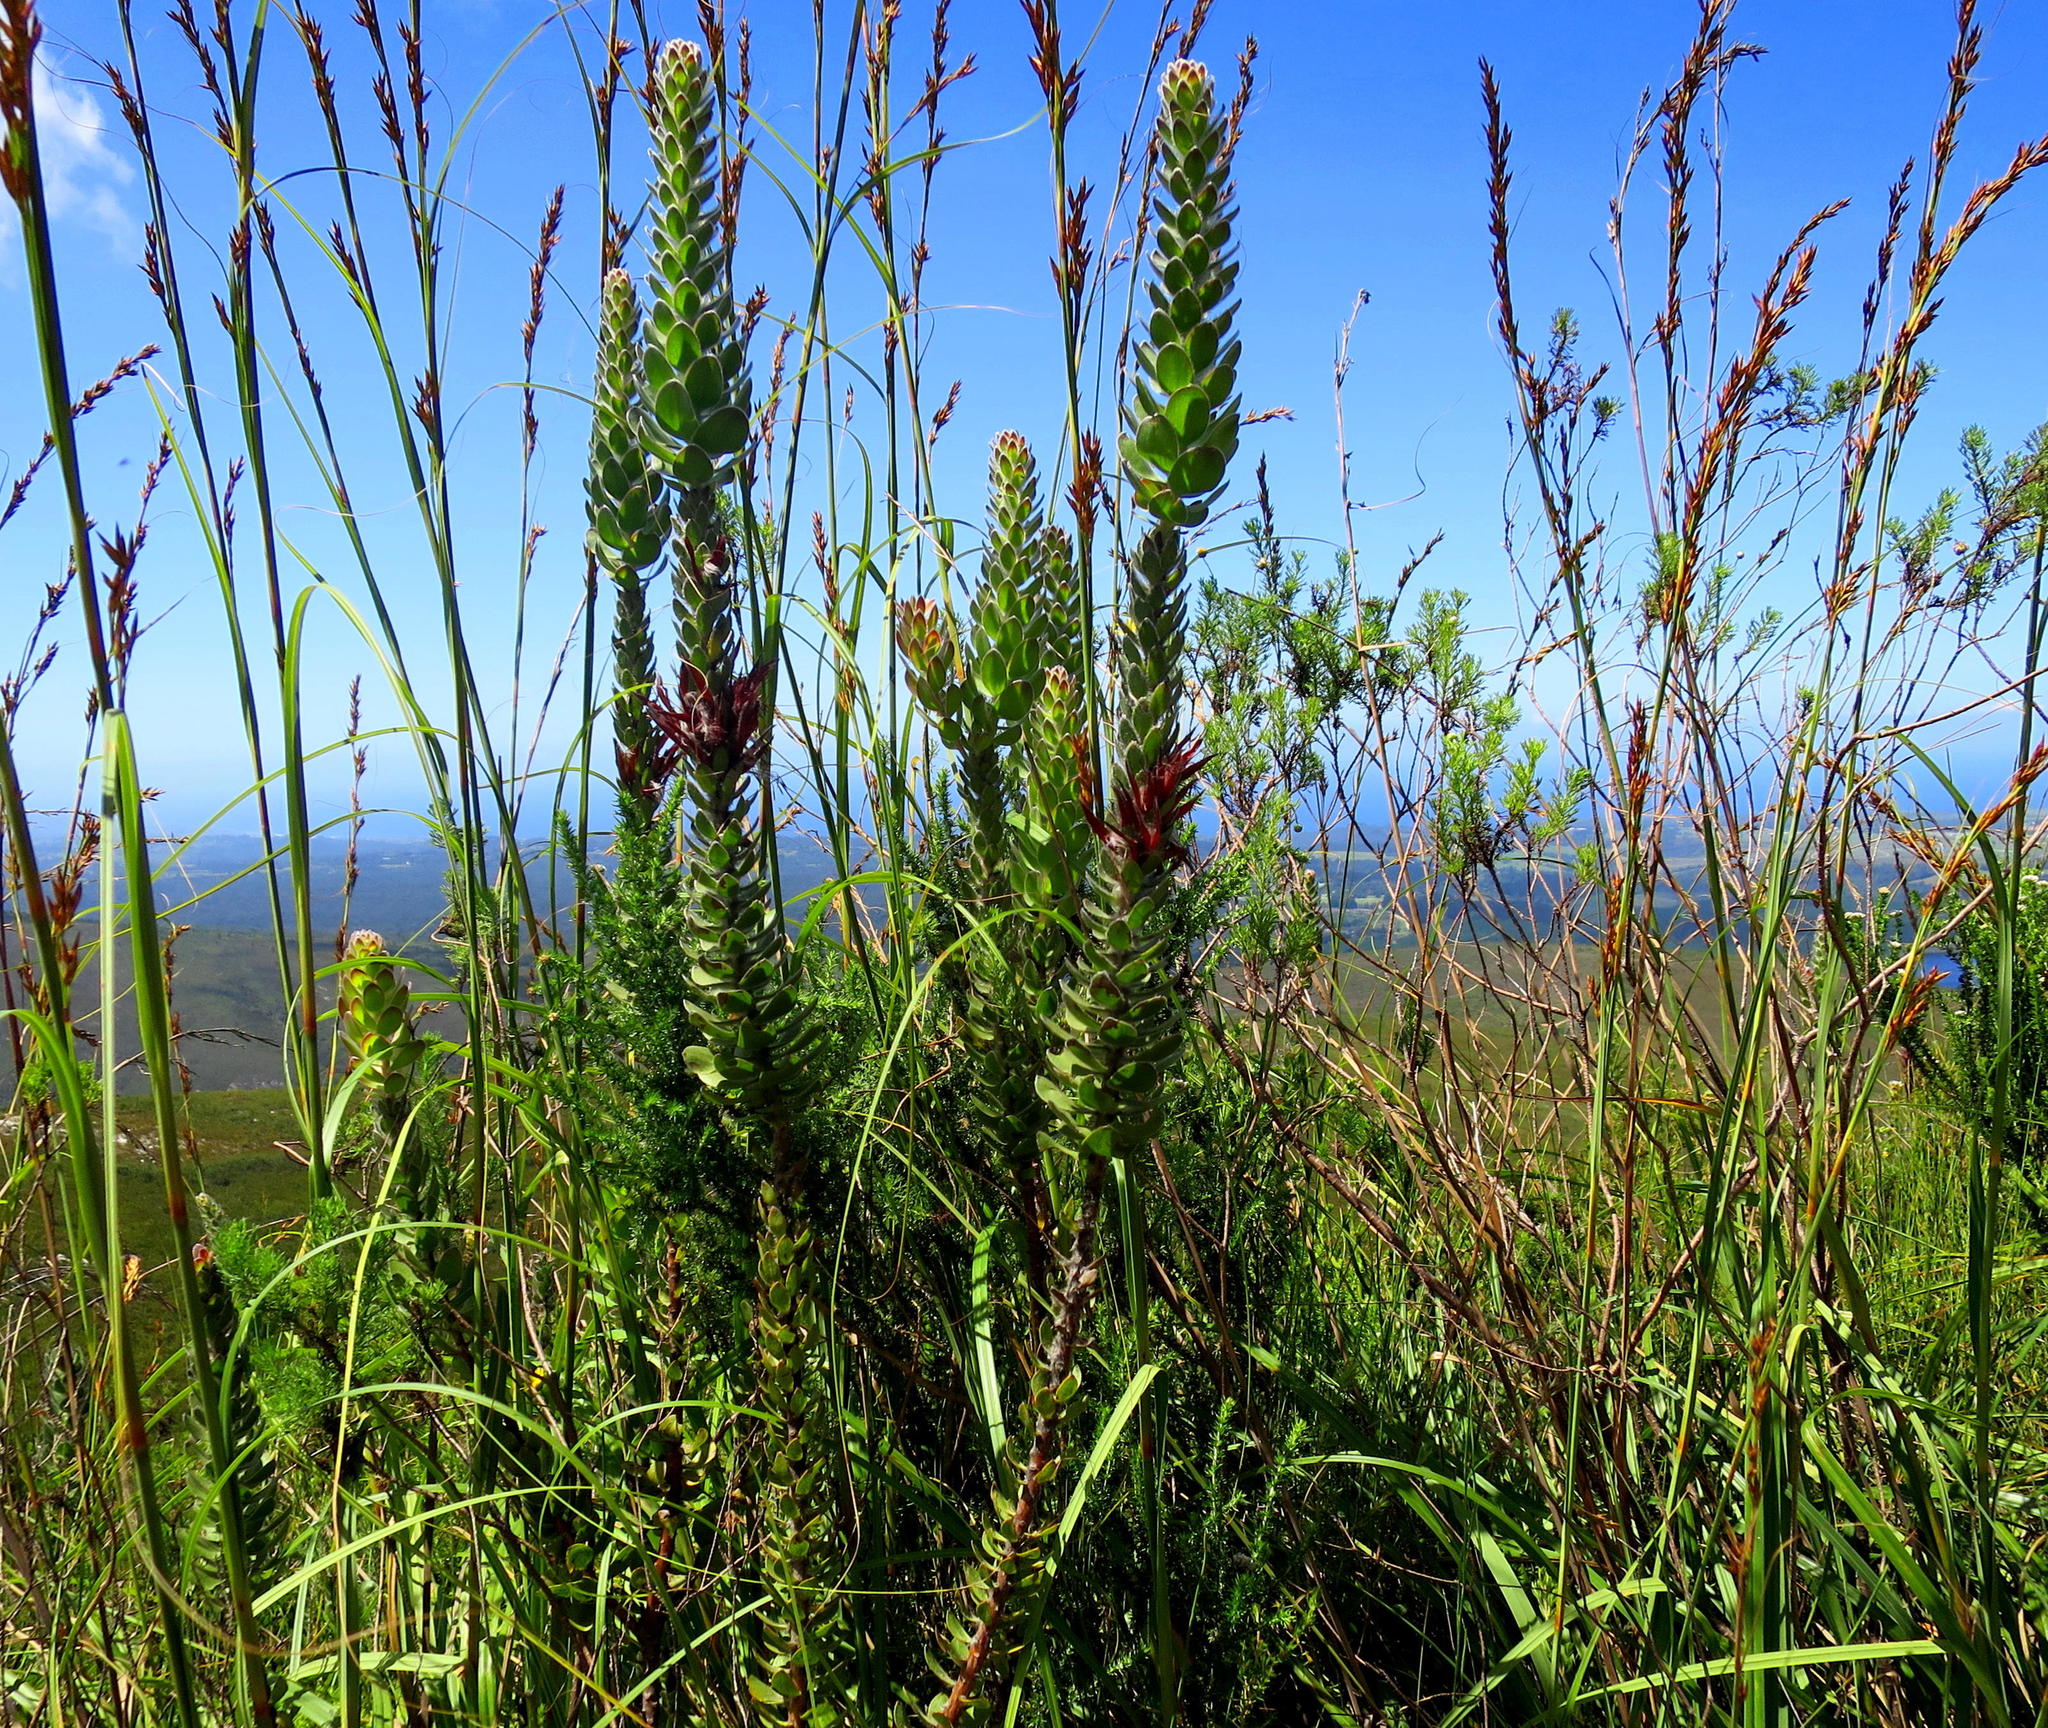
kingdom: Plantae
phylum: Tracheophyta
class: Magnoliopsida
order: Proteales
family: Proteaceae
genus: Mimetes
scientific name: Mimetes pauciflora
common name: Three-flowered pagoda
